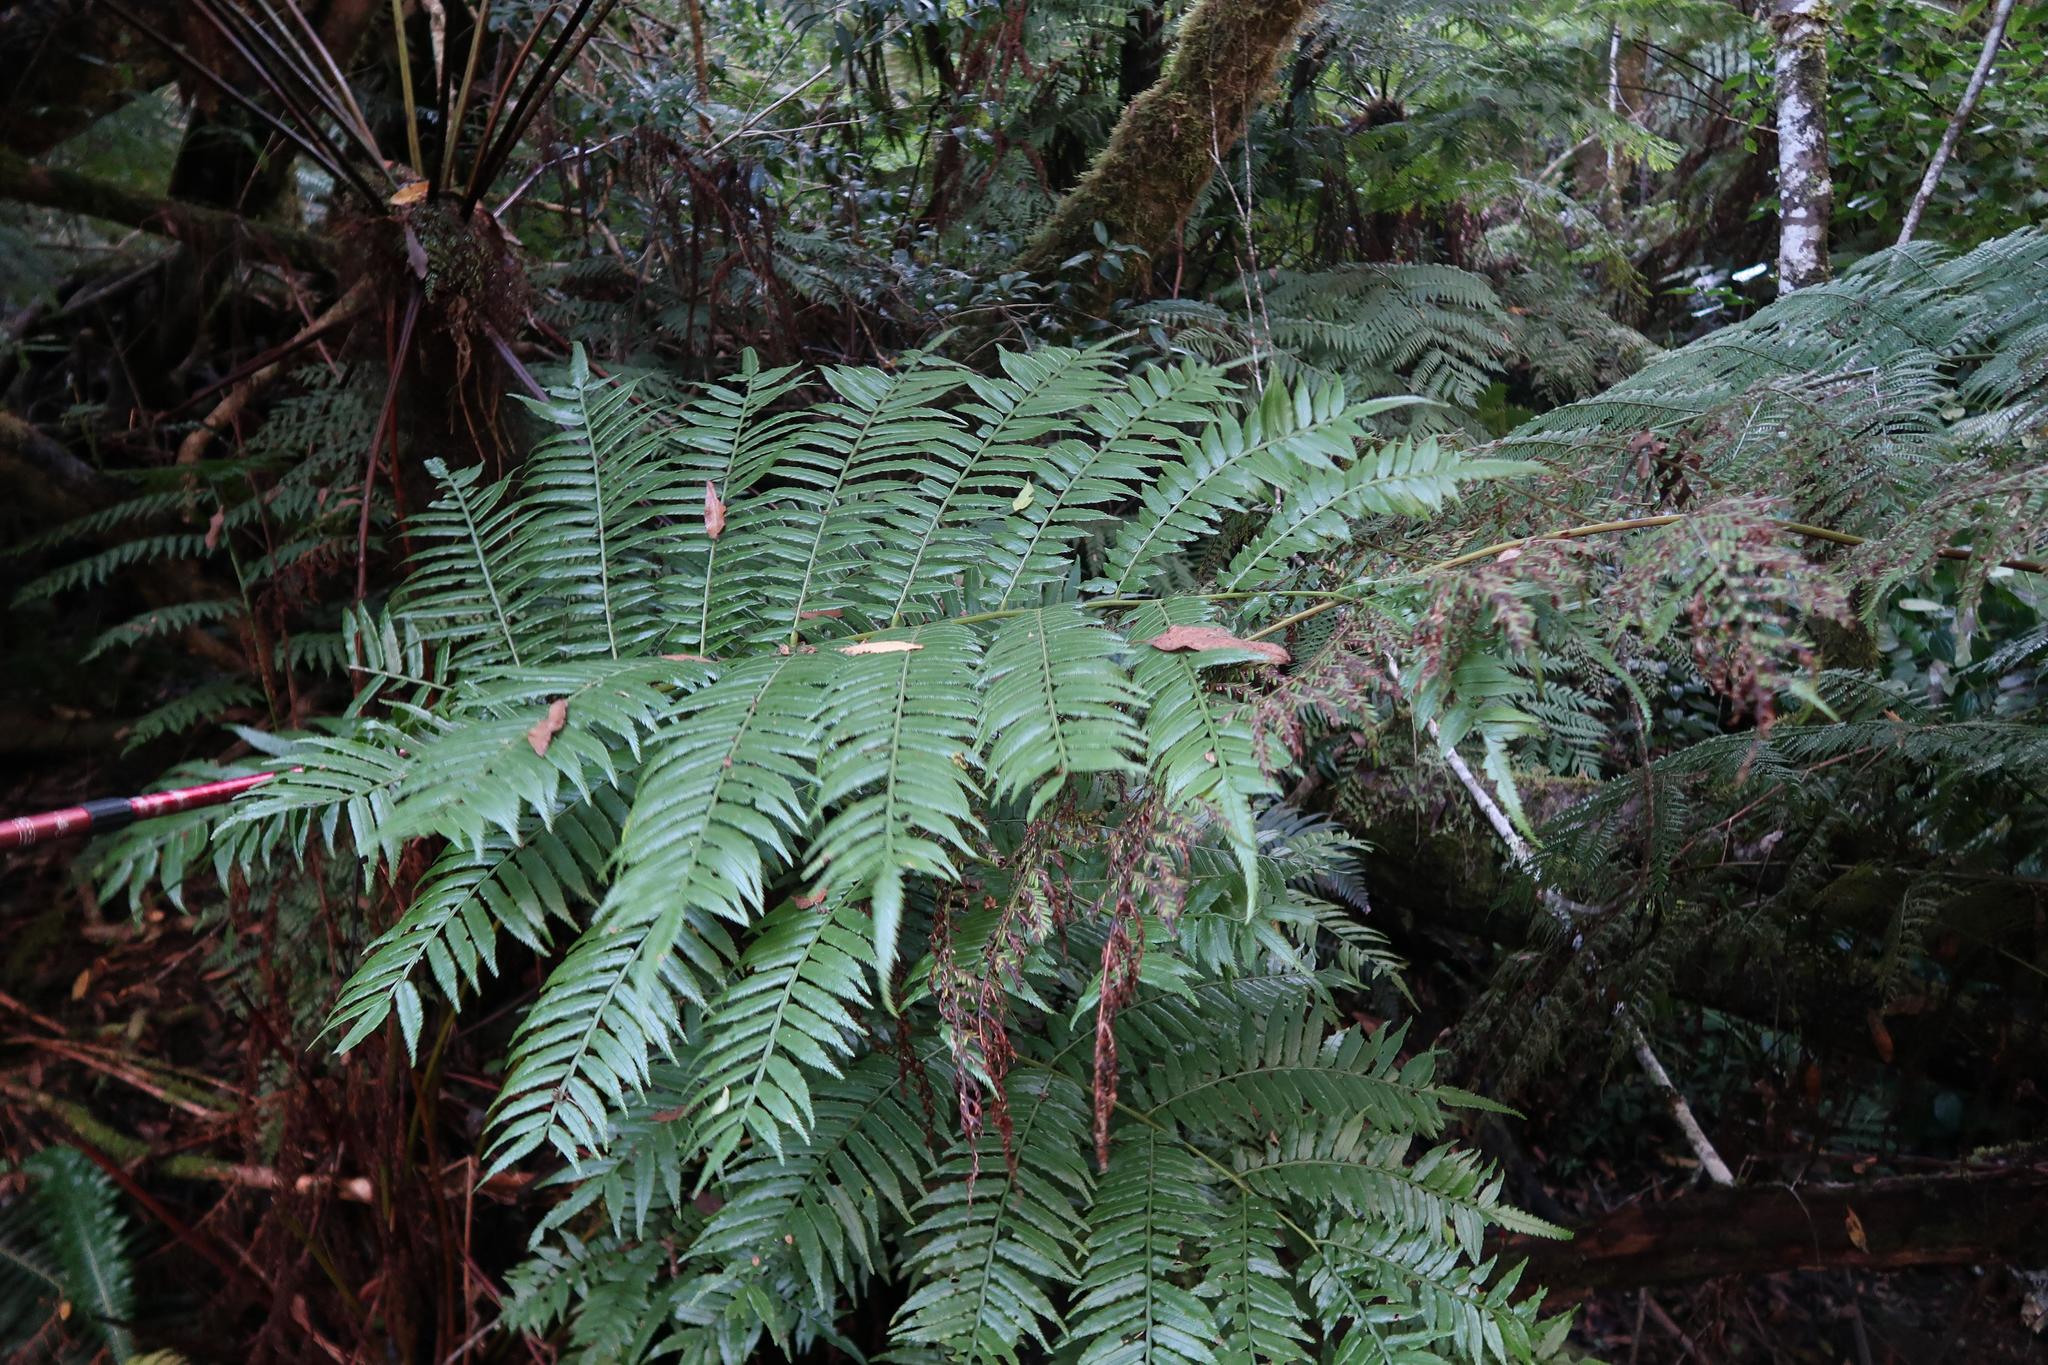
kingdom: Plantae
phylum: Tracheophyta
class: Polypodiopsida
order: Marattiales
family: Marattiaceae
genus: Ptisana
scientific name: Ptisana salicifolia
